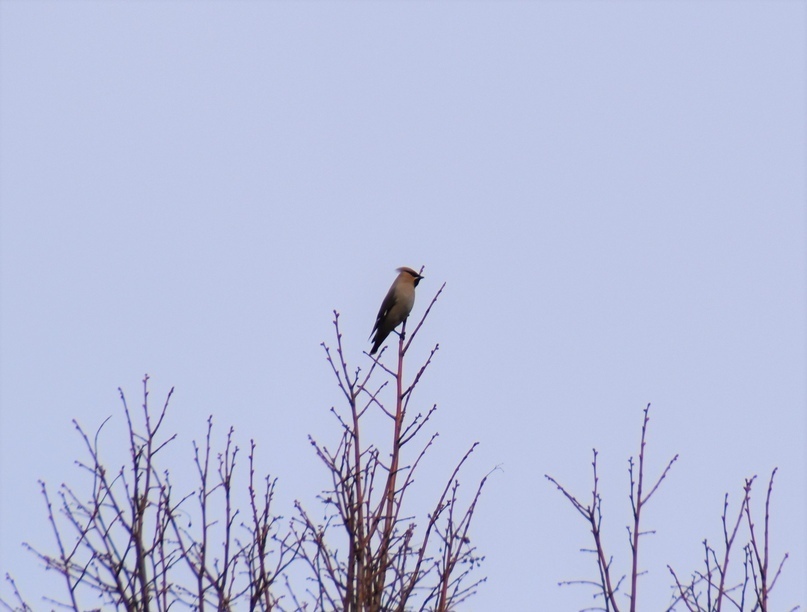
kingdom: Animalia
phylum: Chordata
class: Aves
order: Passeriformes
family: Bombycillidae
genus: Bombycilla
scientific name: Bombycilla garrulus
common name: Bohemian waxwing
